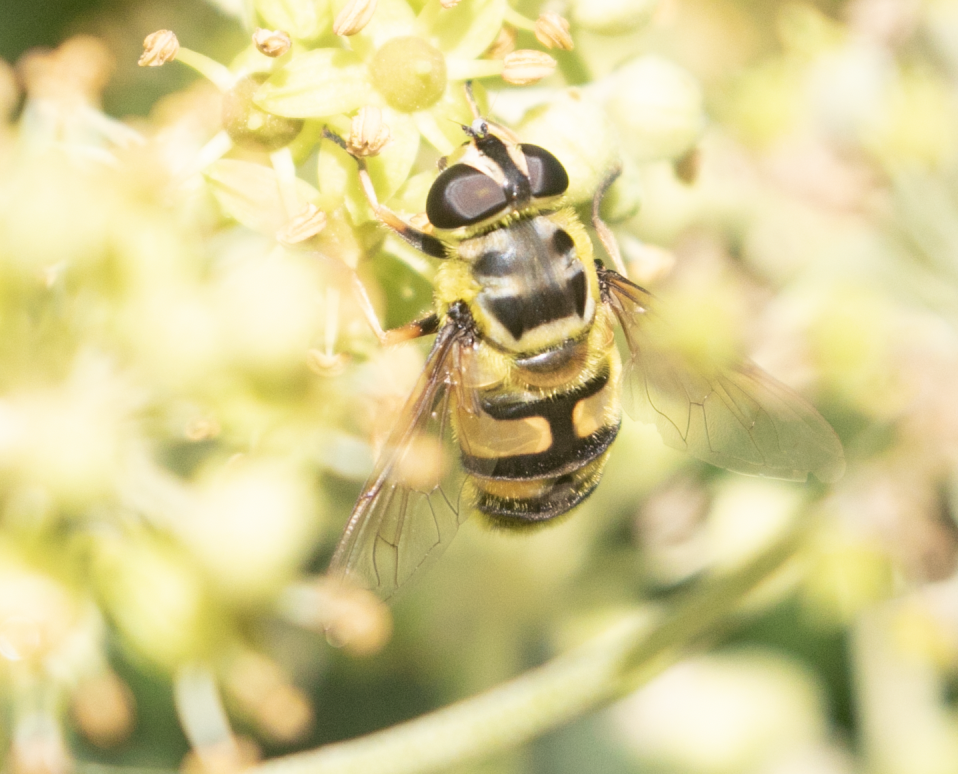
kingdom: Animalia
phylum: Arthropoda
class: Insecta
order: Diptera
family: Syrphidae
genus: Myathropa
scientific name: Myathropa florea
